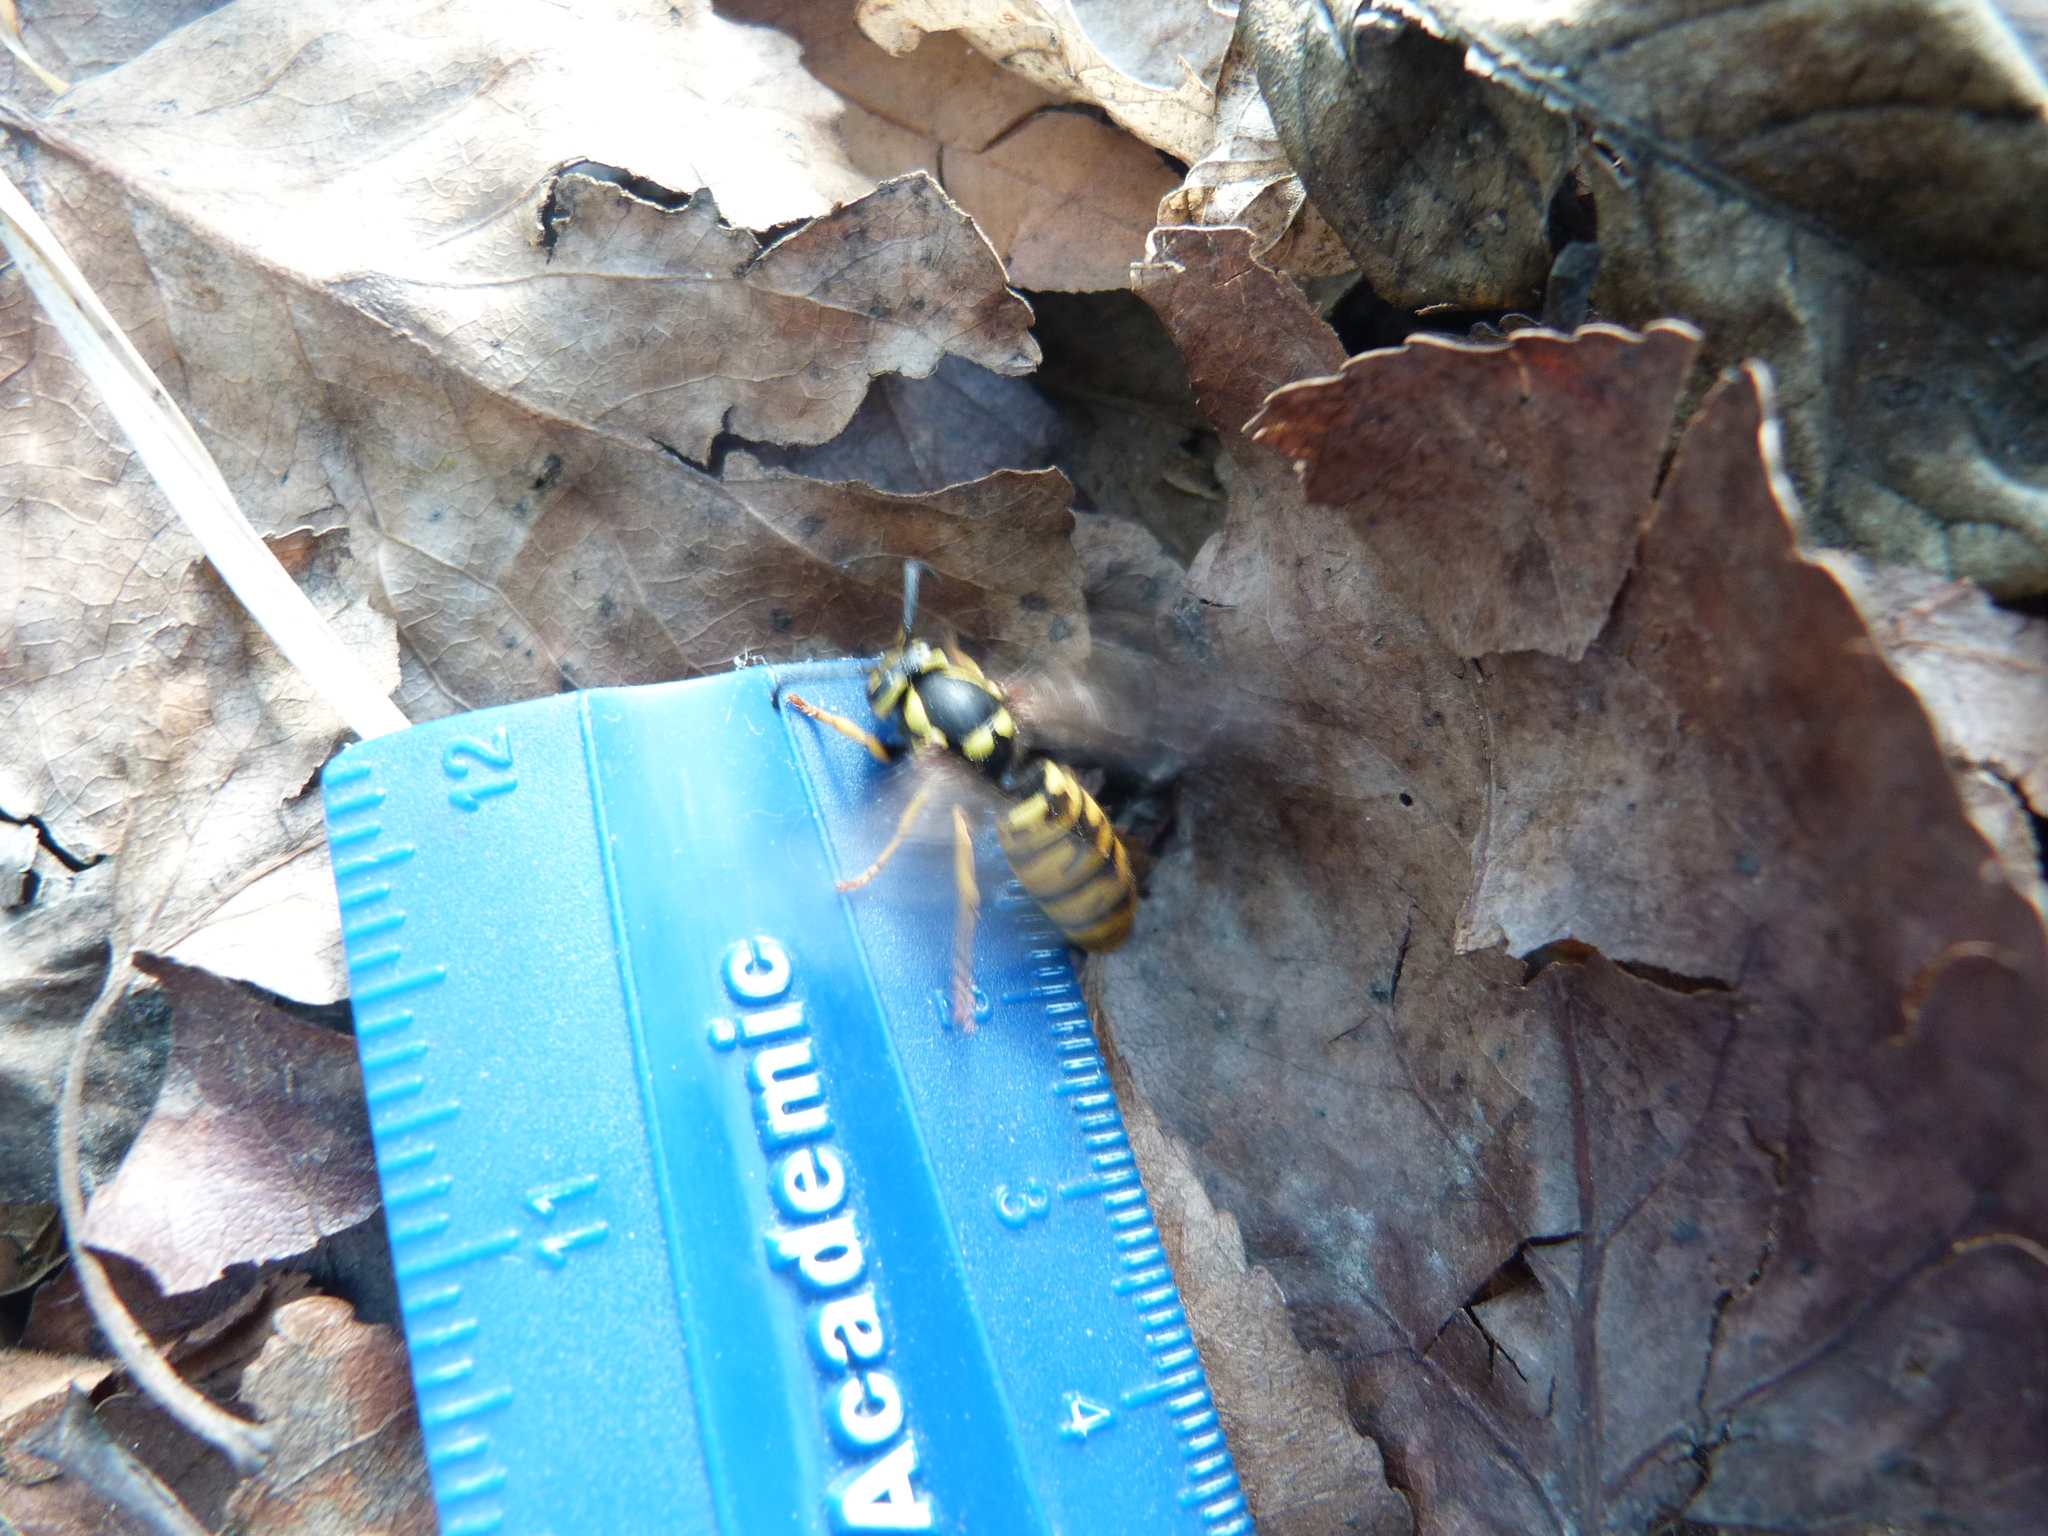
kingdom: Animalia
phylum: Arthropoda
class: Insecta
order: Hymenoptera
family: Vespidae
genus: Vespula
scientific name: Vespula atropilosa
